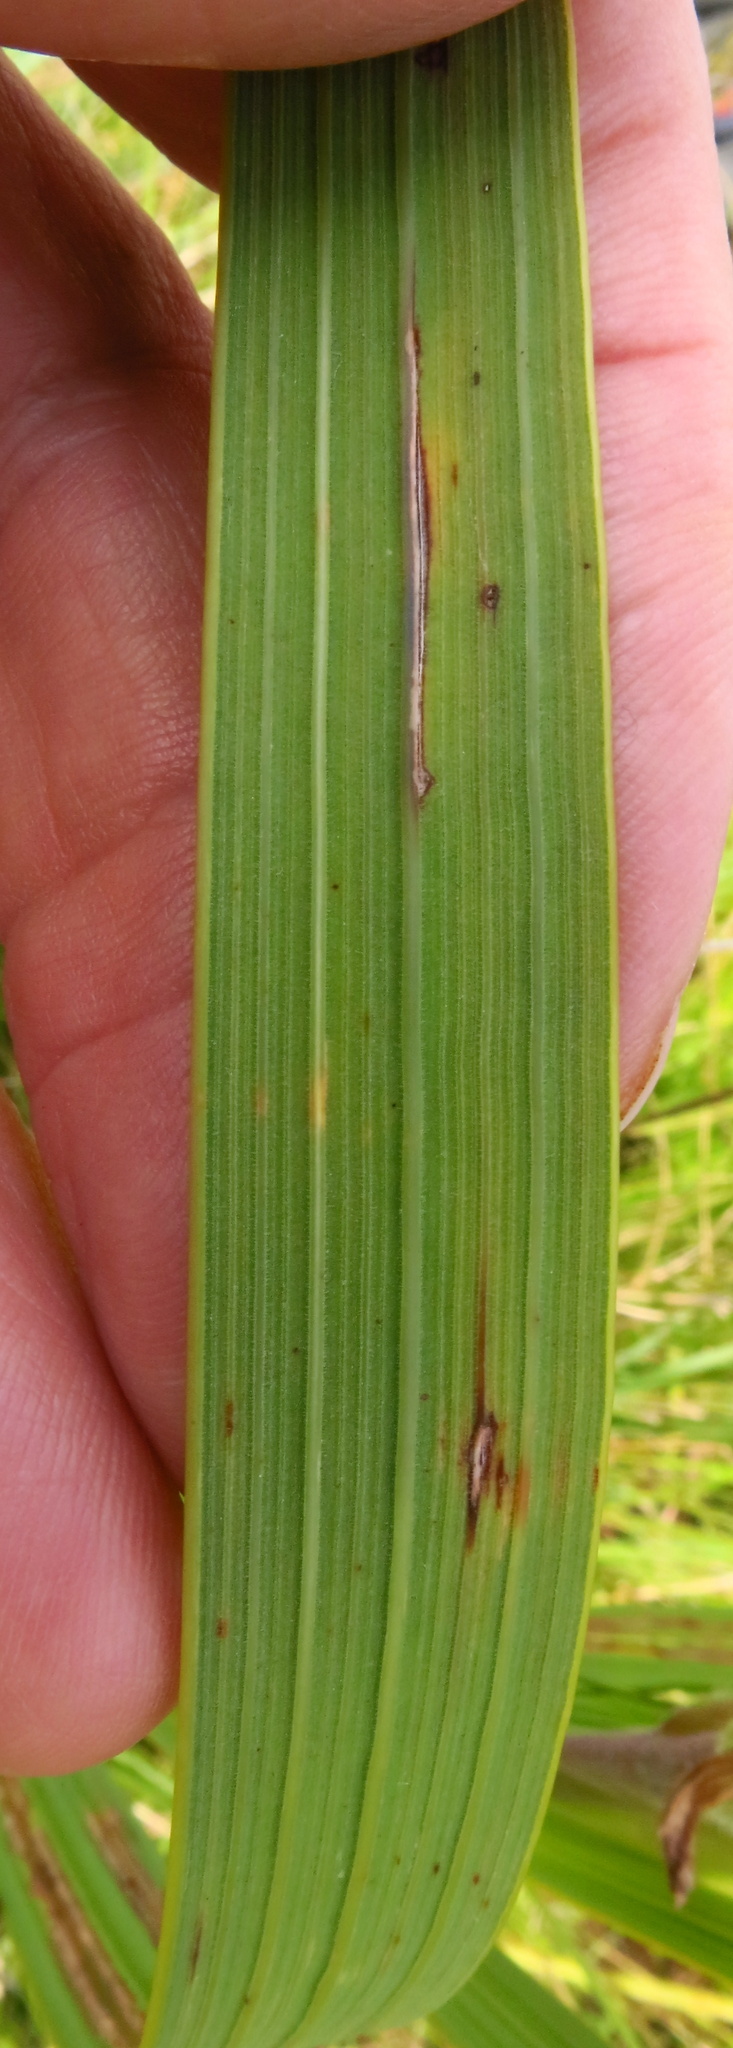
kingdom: Plantae
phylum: Tracheophyta
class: Liliopsida
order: Asparagales
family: Iridaceae
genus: Gladiolus
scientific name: Gladiolus sericeovillosus
